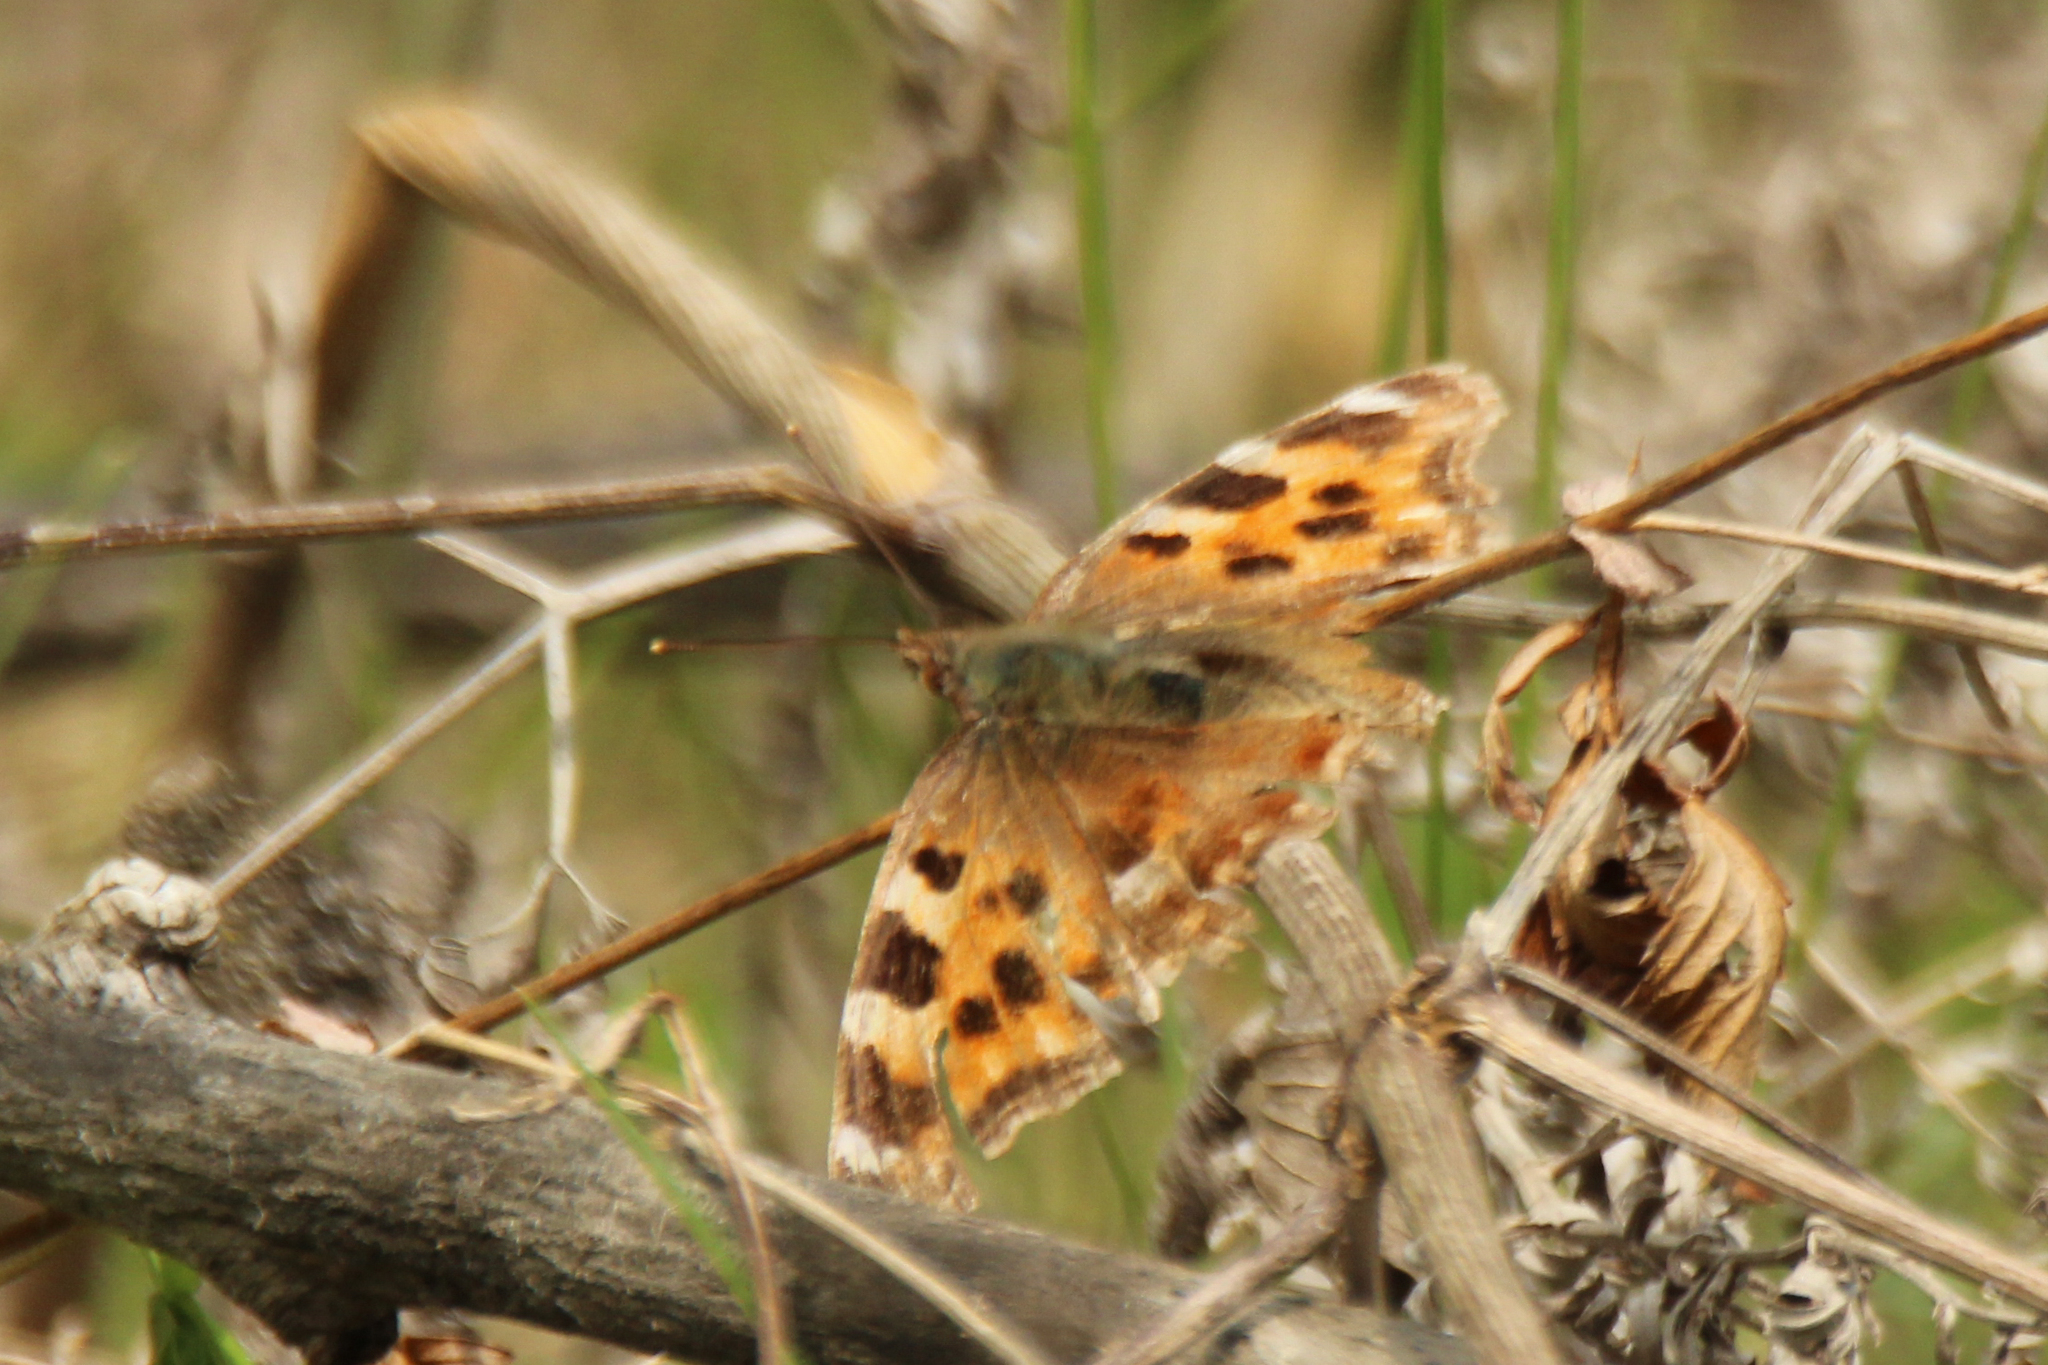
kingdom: Animalia
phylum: Arthropoda
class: Insecta
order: Lepidoptera
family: Nymphalidae
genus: Polygonia
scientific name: Polygonia vaualbum
